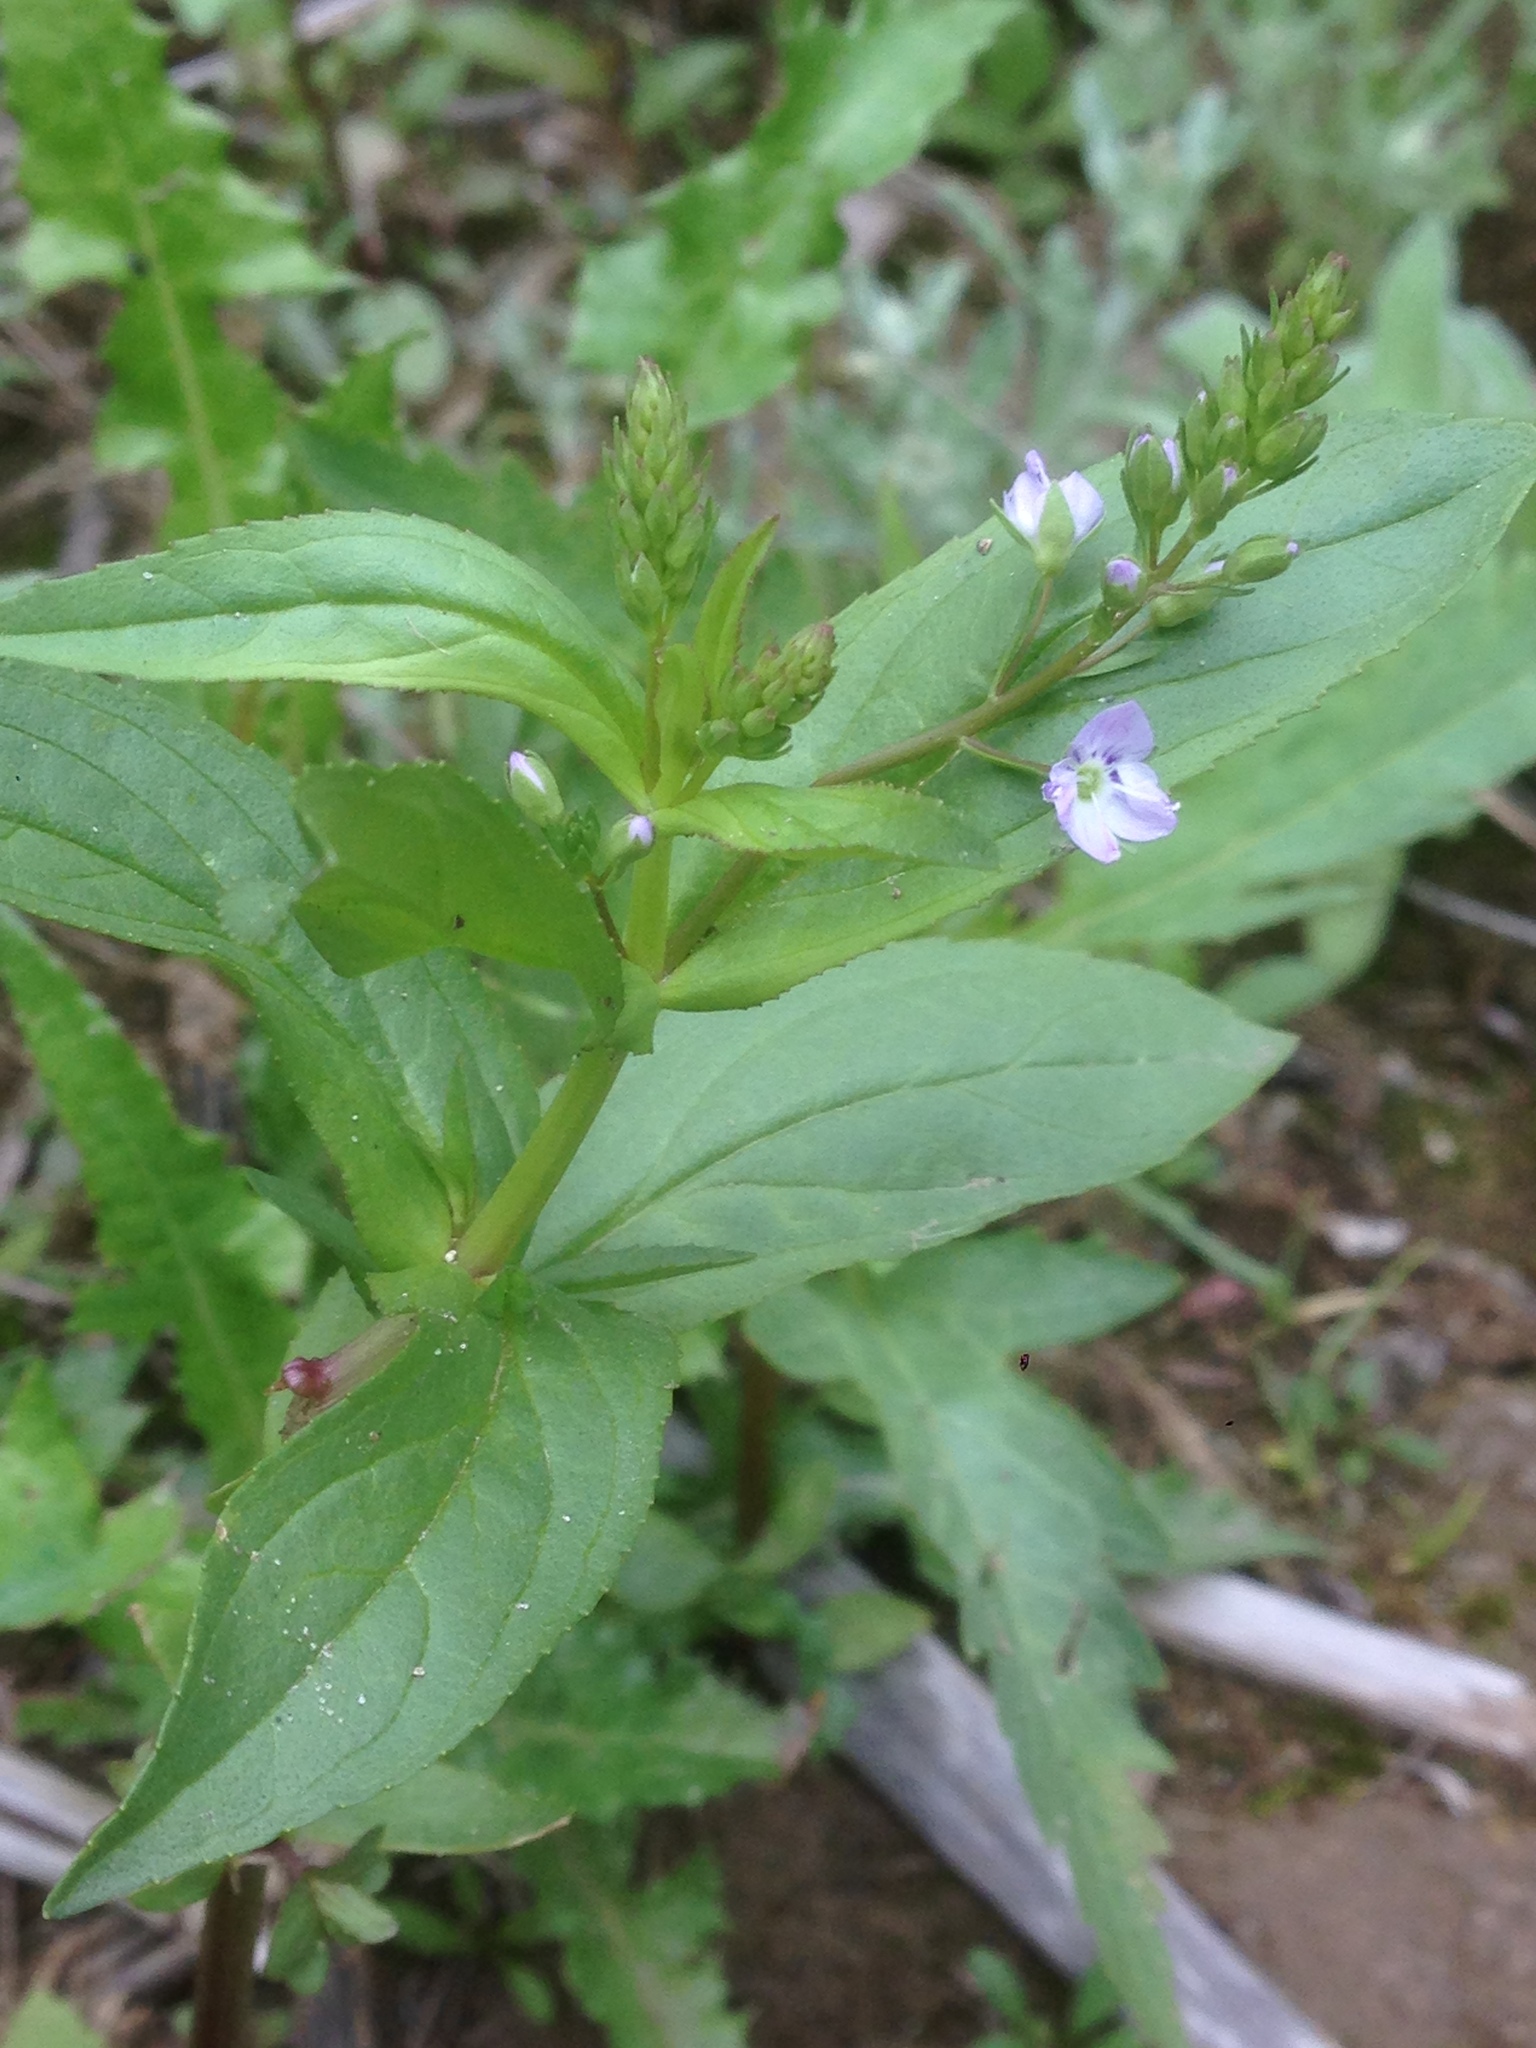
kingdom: Plantae
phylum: Tracheophyta
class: Magnoliopsida
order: Lamiales
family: Plantaginaceae
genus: Veronica
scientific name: Veronica anagallis-aquatica
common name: Water speedwell
